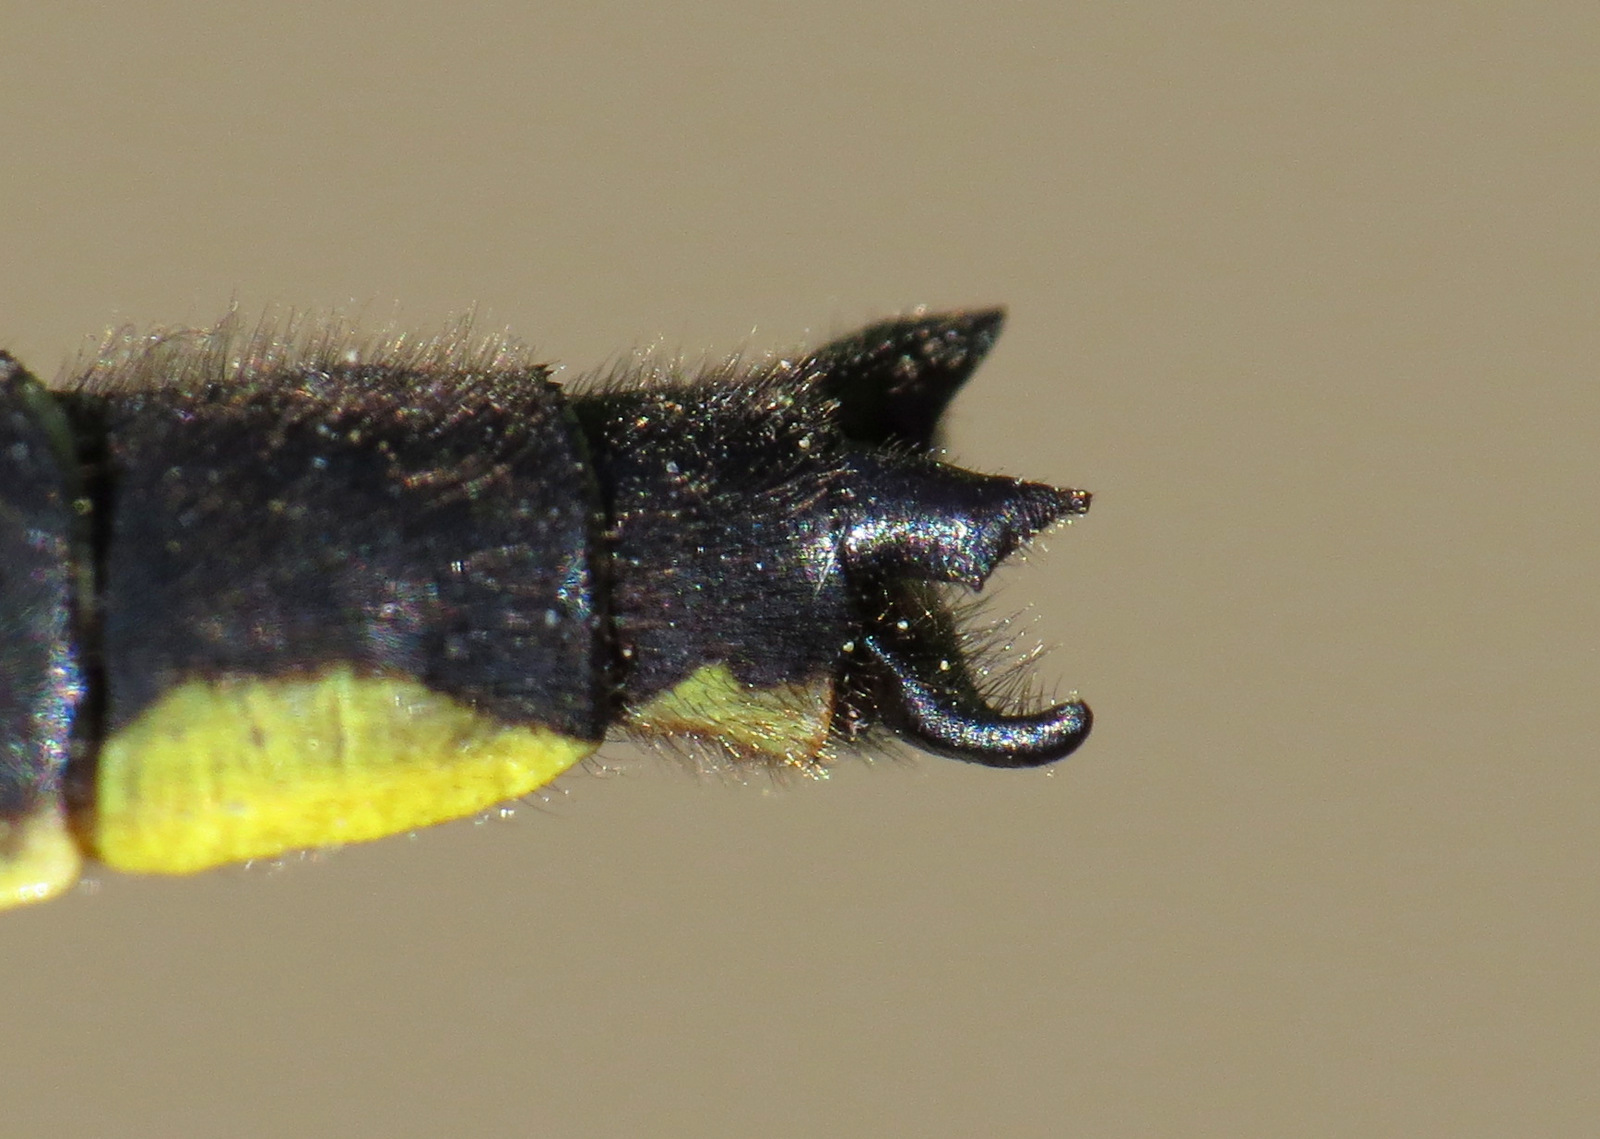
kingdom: Animalia
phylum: Arthropoda
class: Insecta
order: Odonata
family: Gomphidae
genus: Phanogomphus
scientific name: Phanogomphus borealis
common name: Beaverpond clubtail
